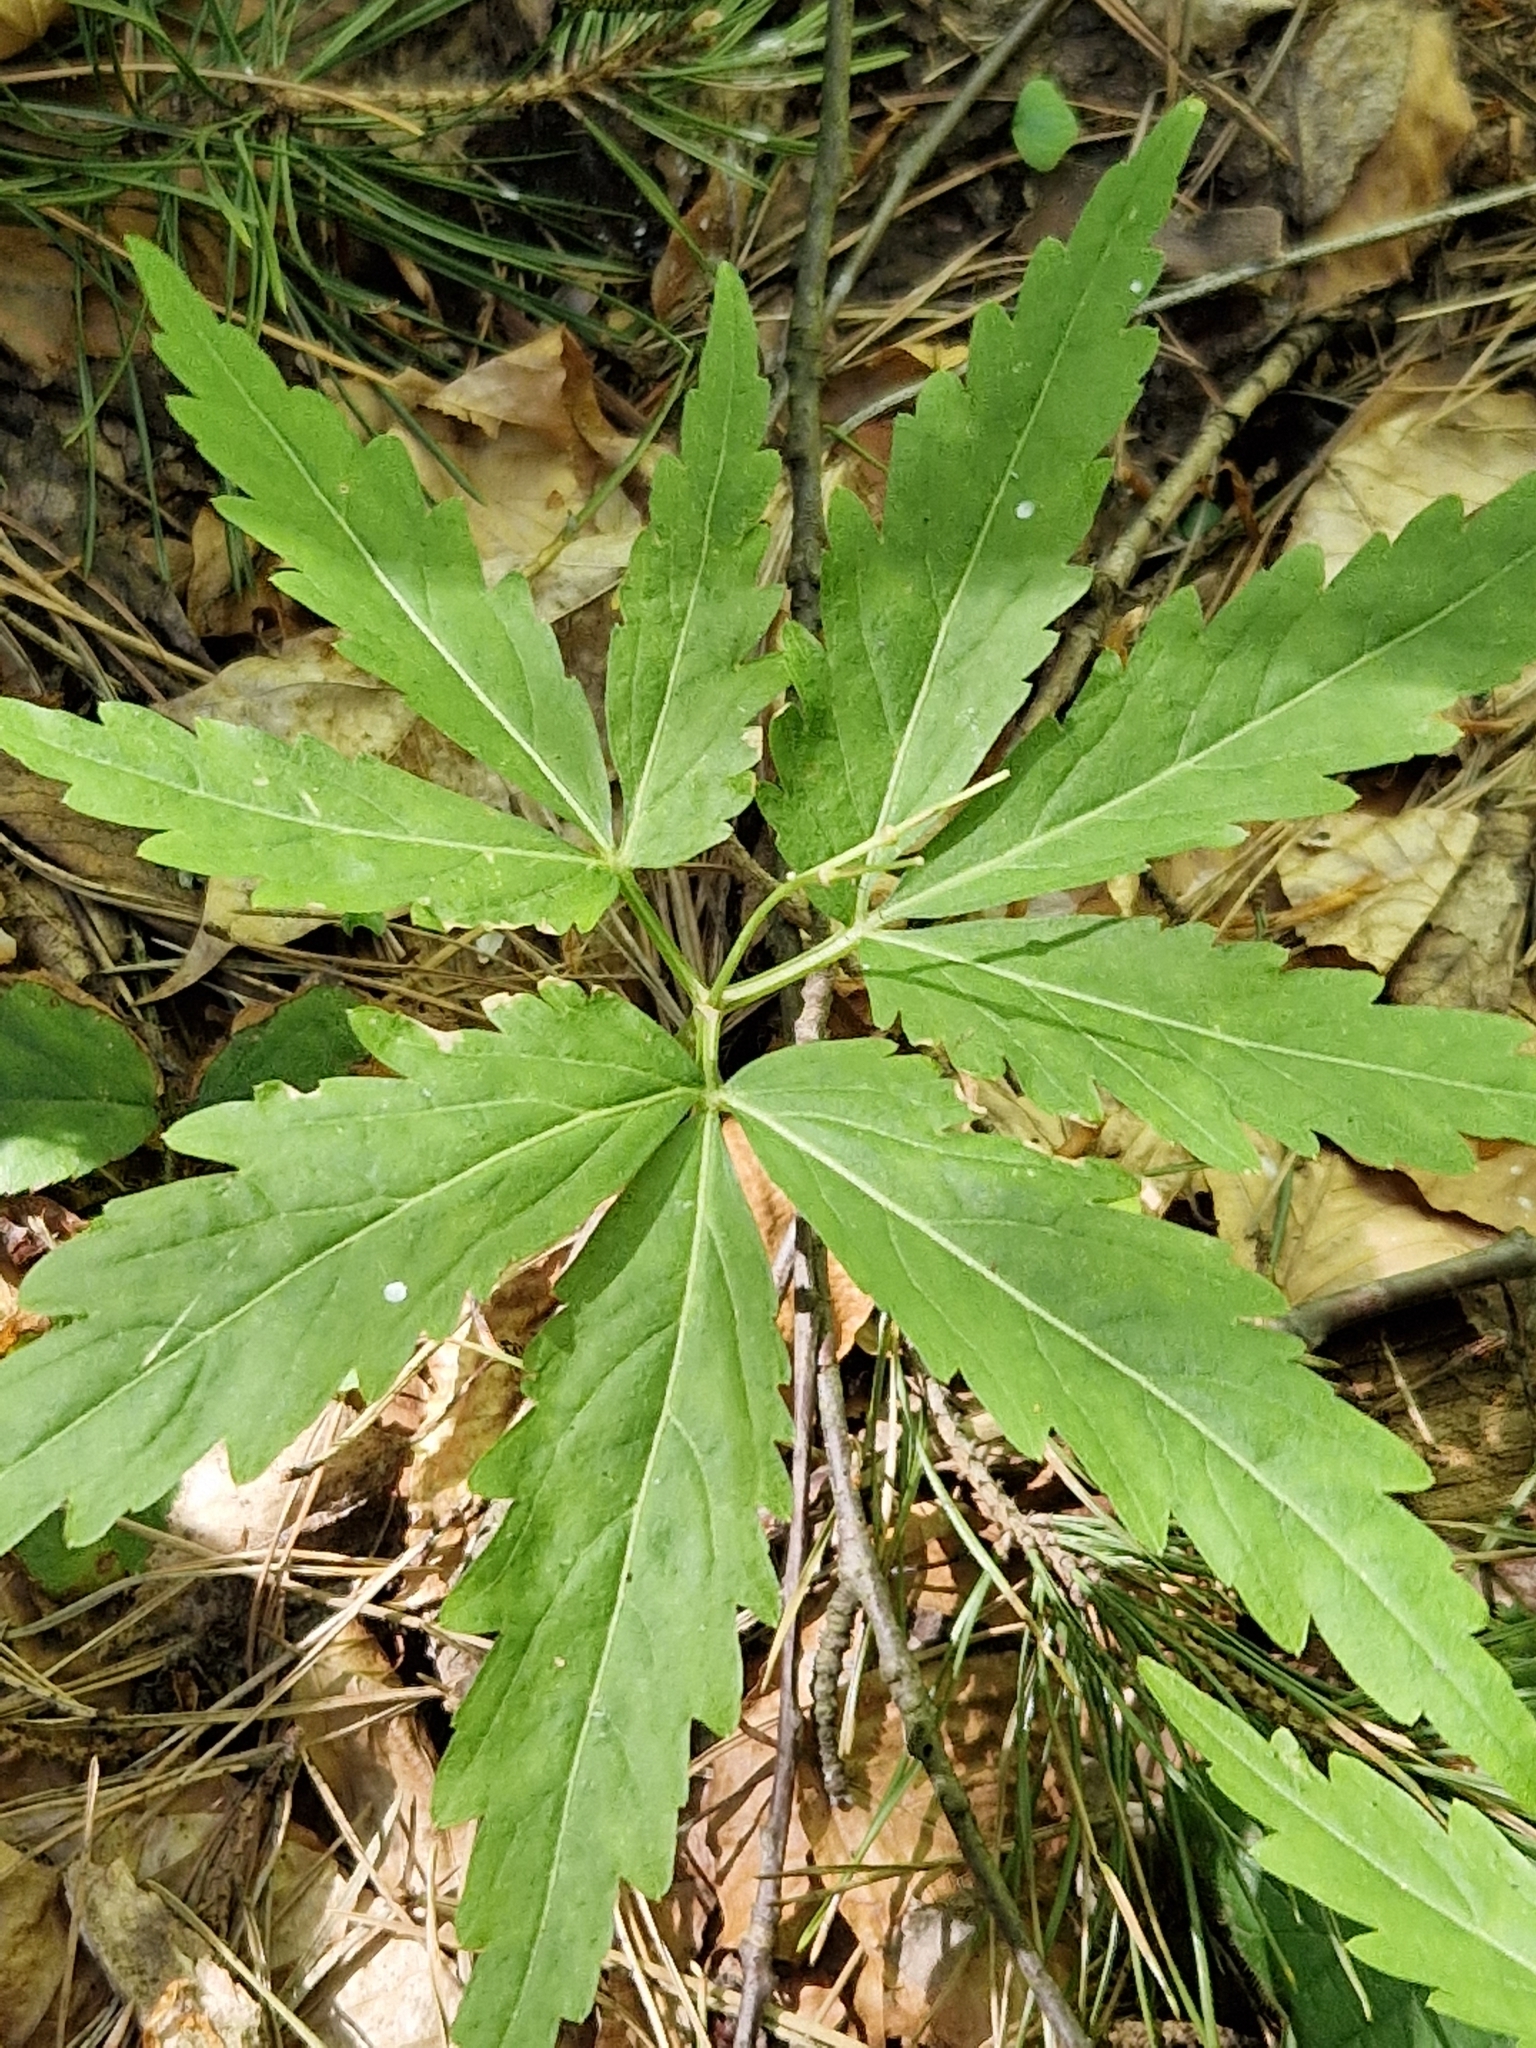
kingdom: Plantae
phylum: Tracheophyta
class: Magnoliopsida
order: Brassicales
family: Brassicaceae
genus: Cardamine
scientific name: Cardamine glanduligera
